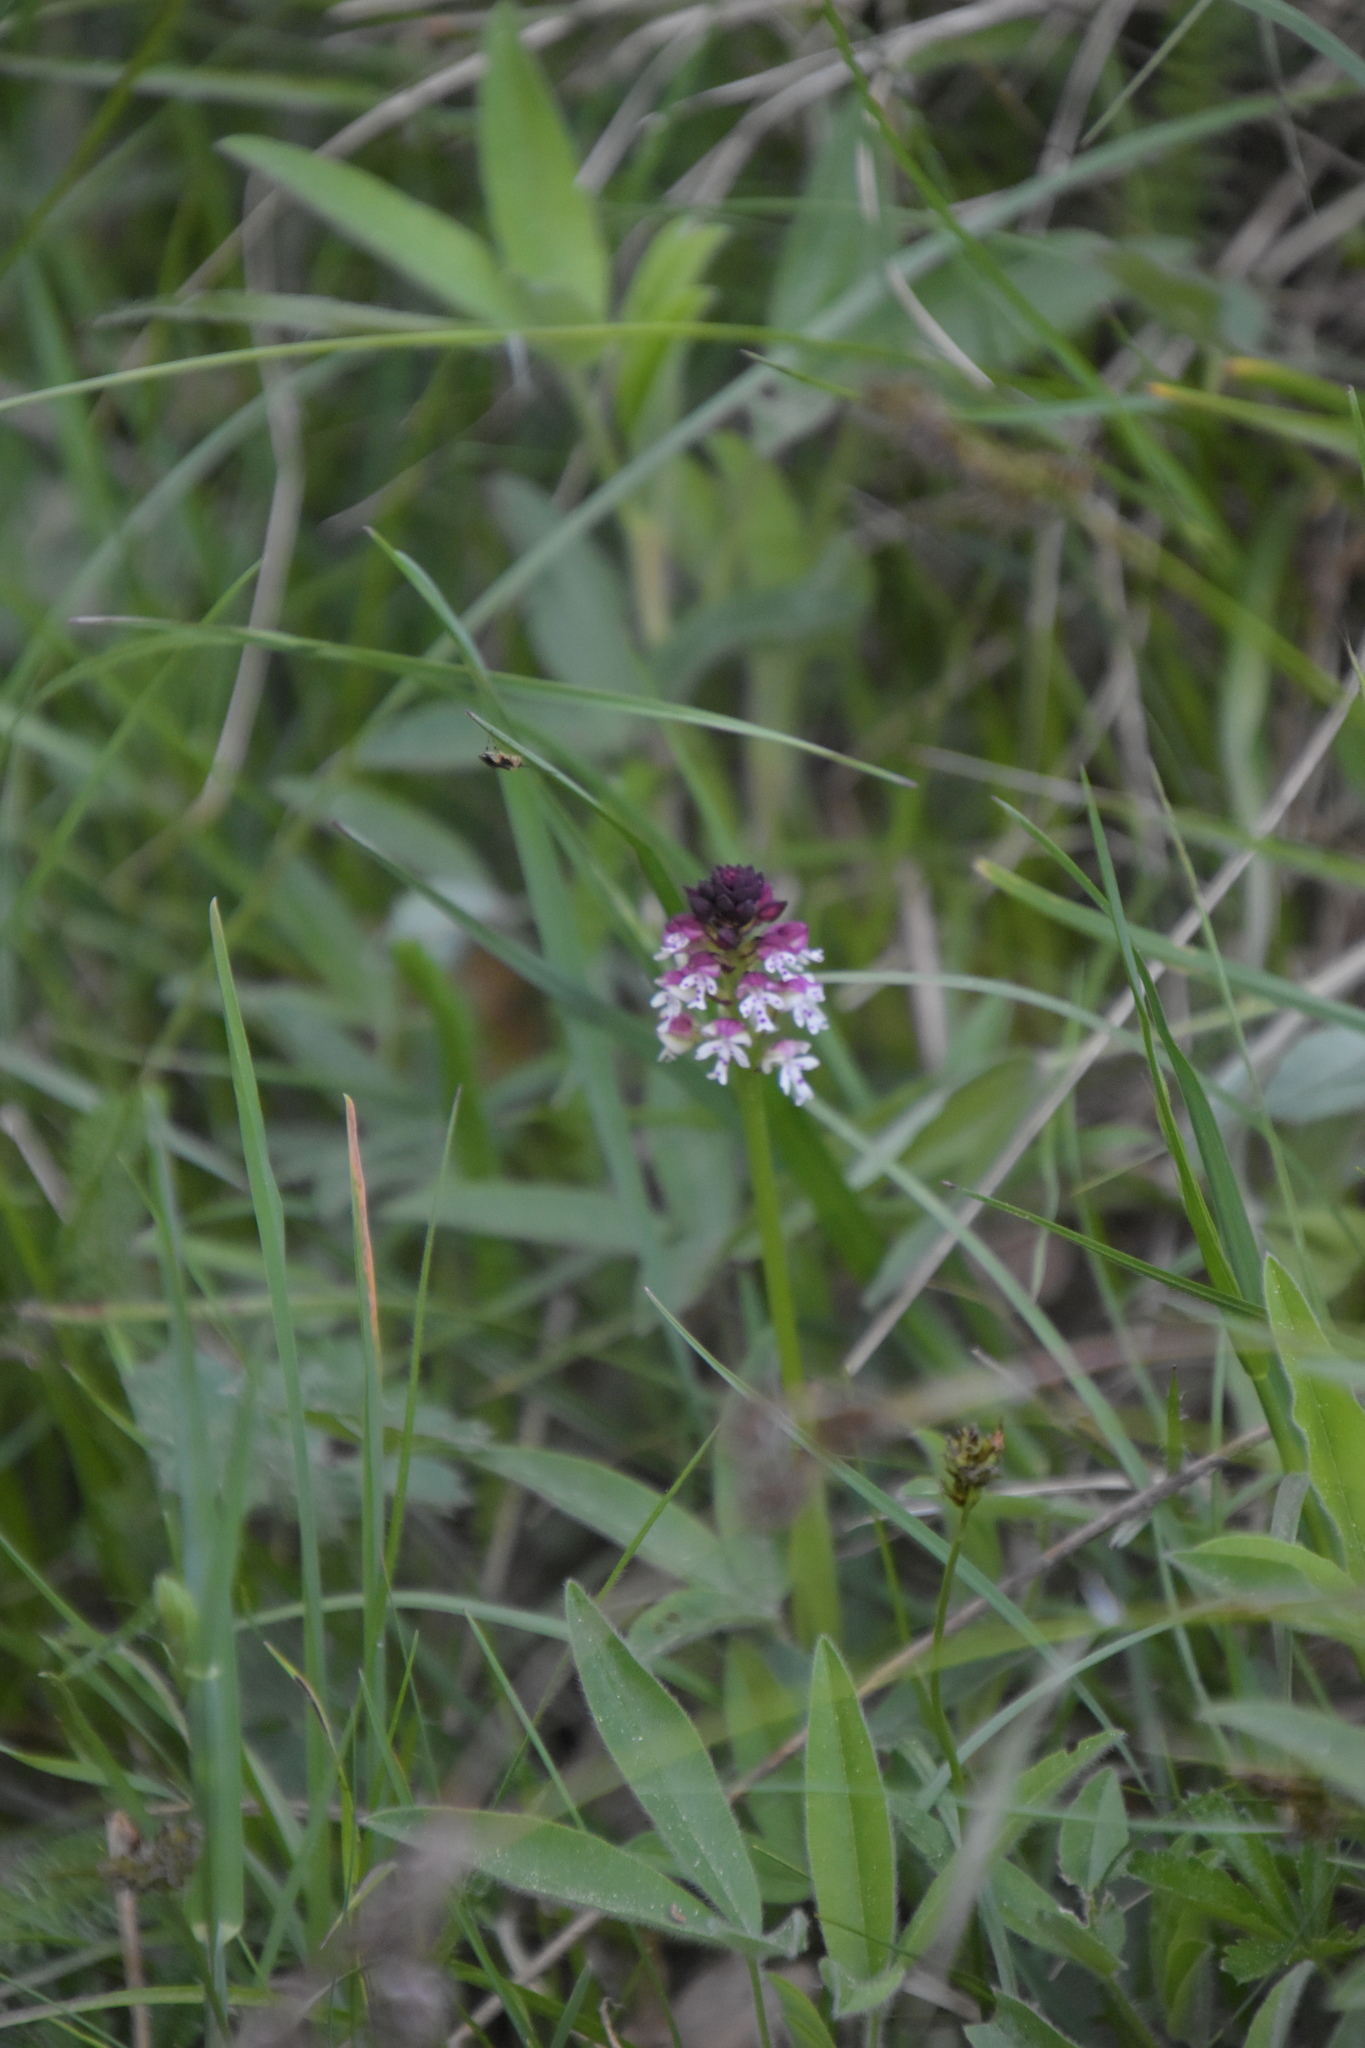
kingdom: Plantae
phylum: Tracheophyta
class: Liliopsida
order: Asparagales
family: Orchidaceae
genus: Neotinea
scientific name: Neotinea ustulata
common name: Burnt orchid
